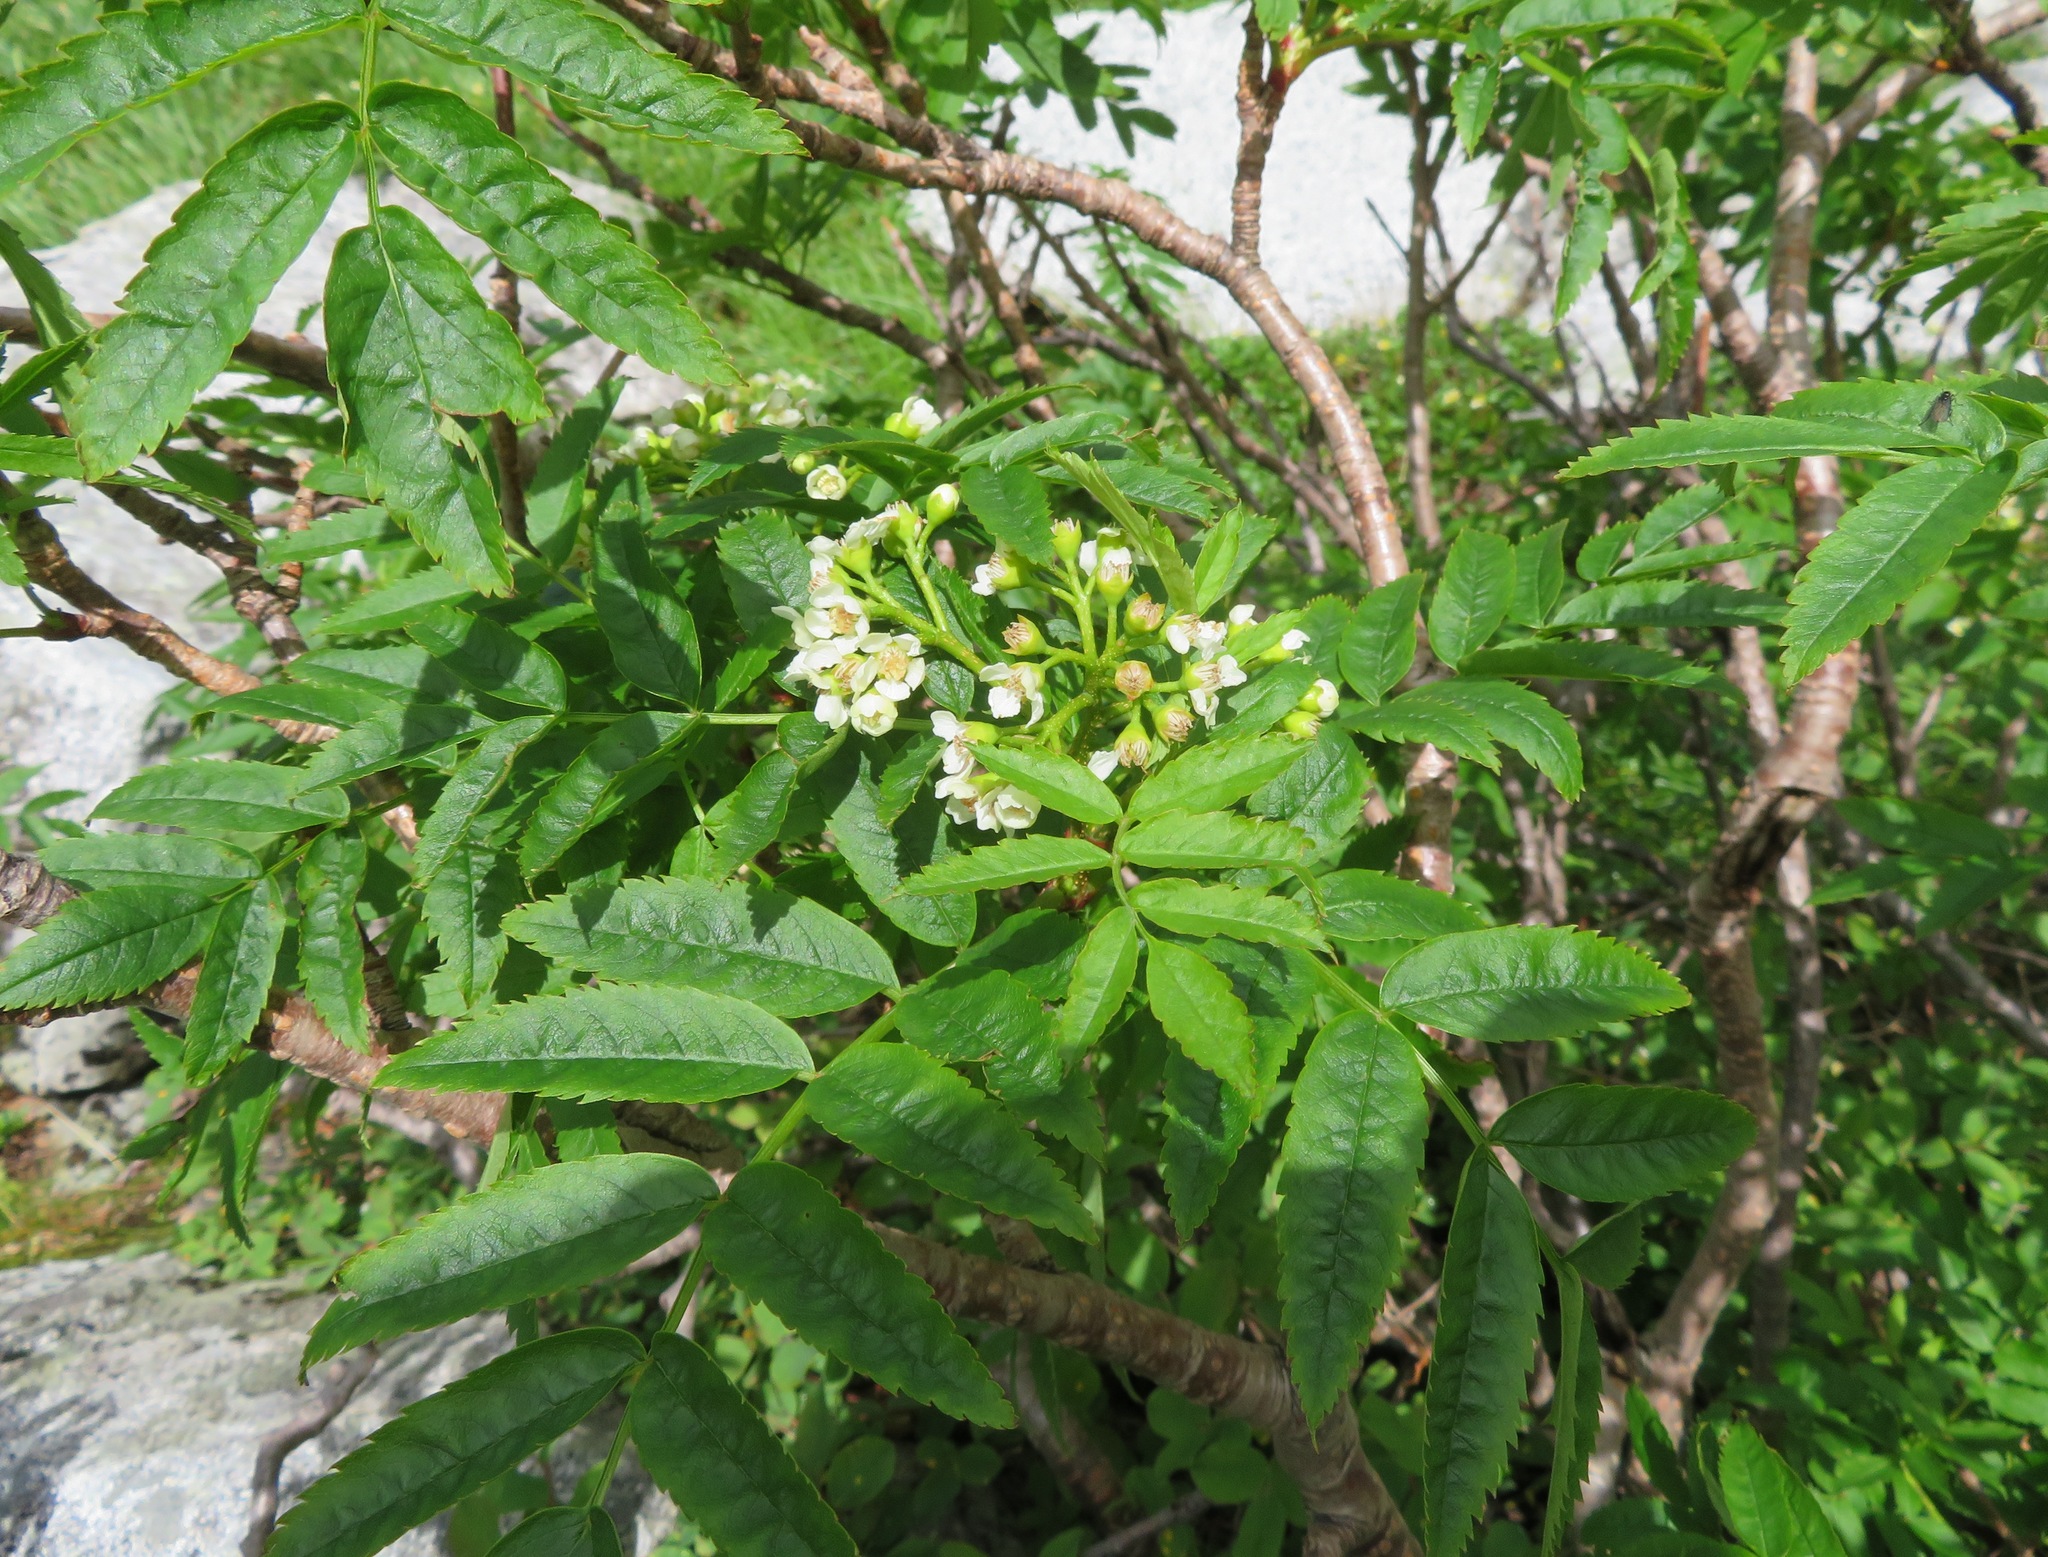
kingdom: Plantae
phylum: Tracheophyta
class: Magnoliopsida
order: Rosales
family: Rosaceae
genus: Sorbus
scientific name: Sorbus sambucifolia
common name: Siberian mountain-ash
